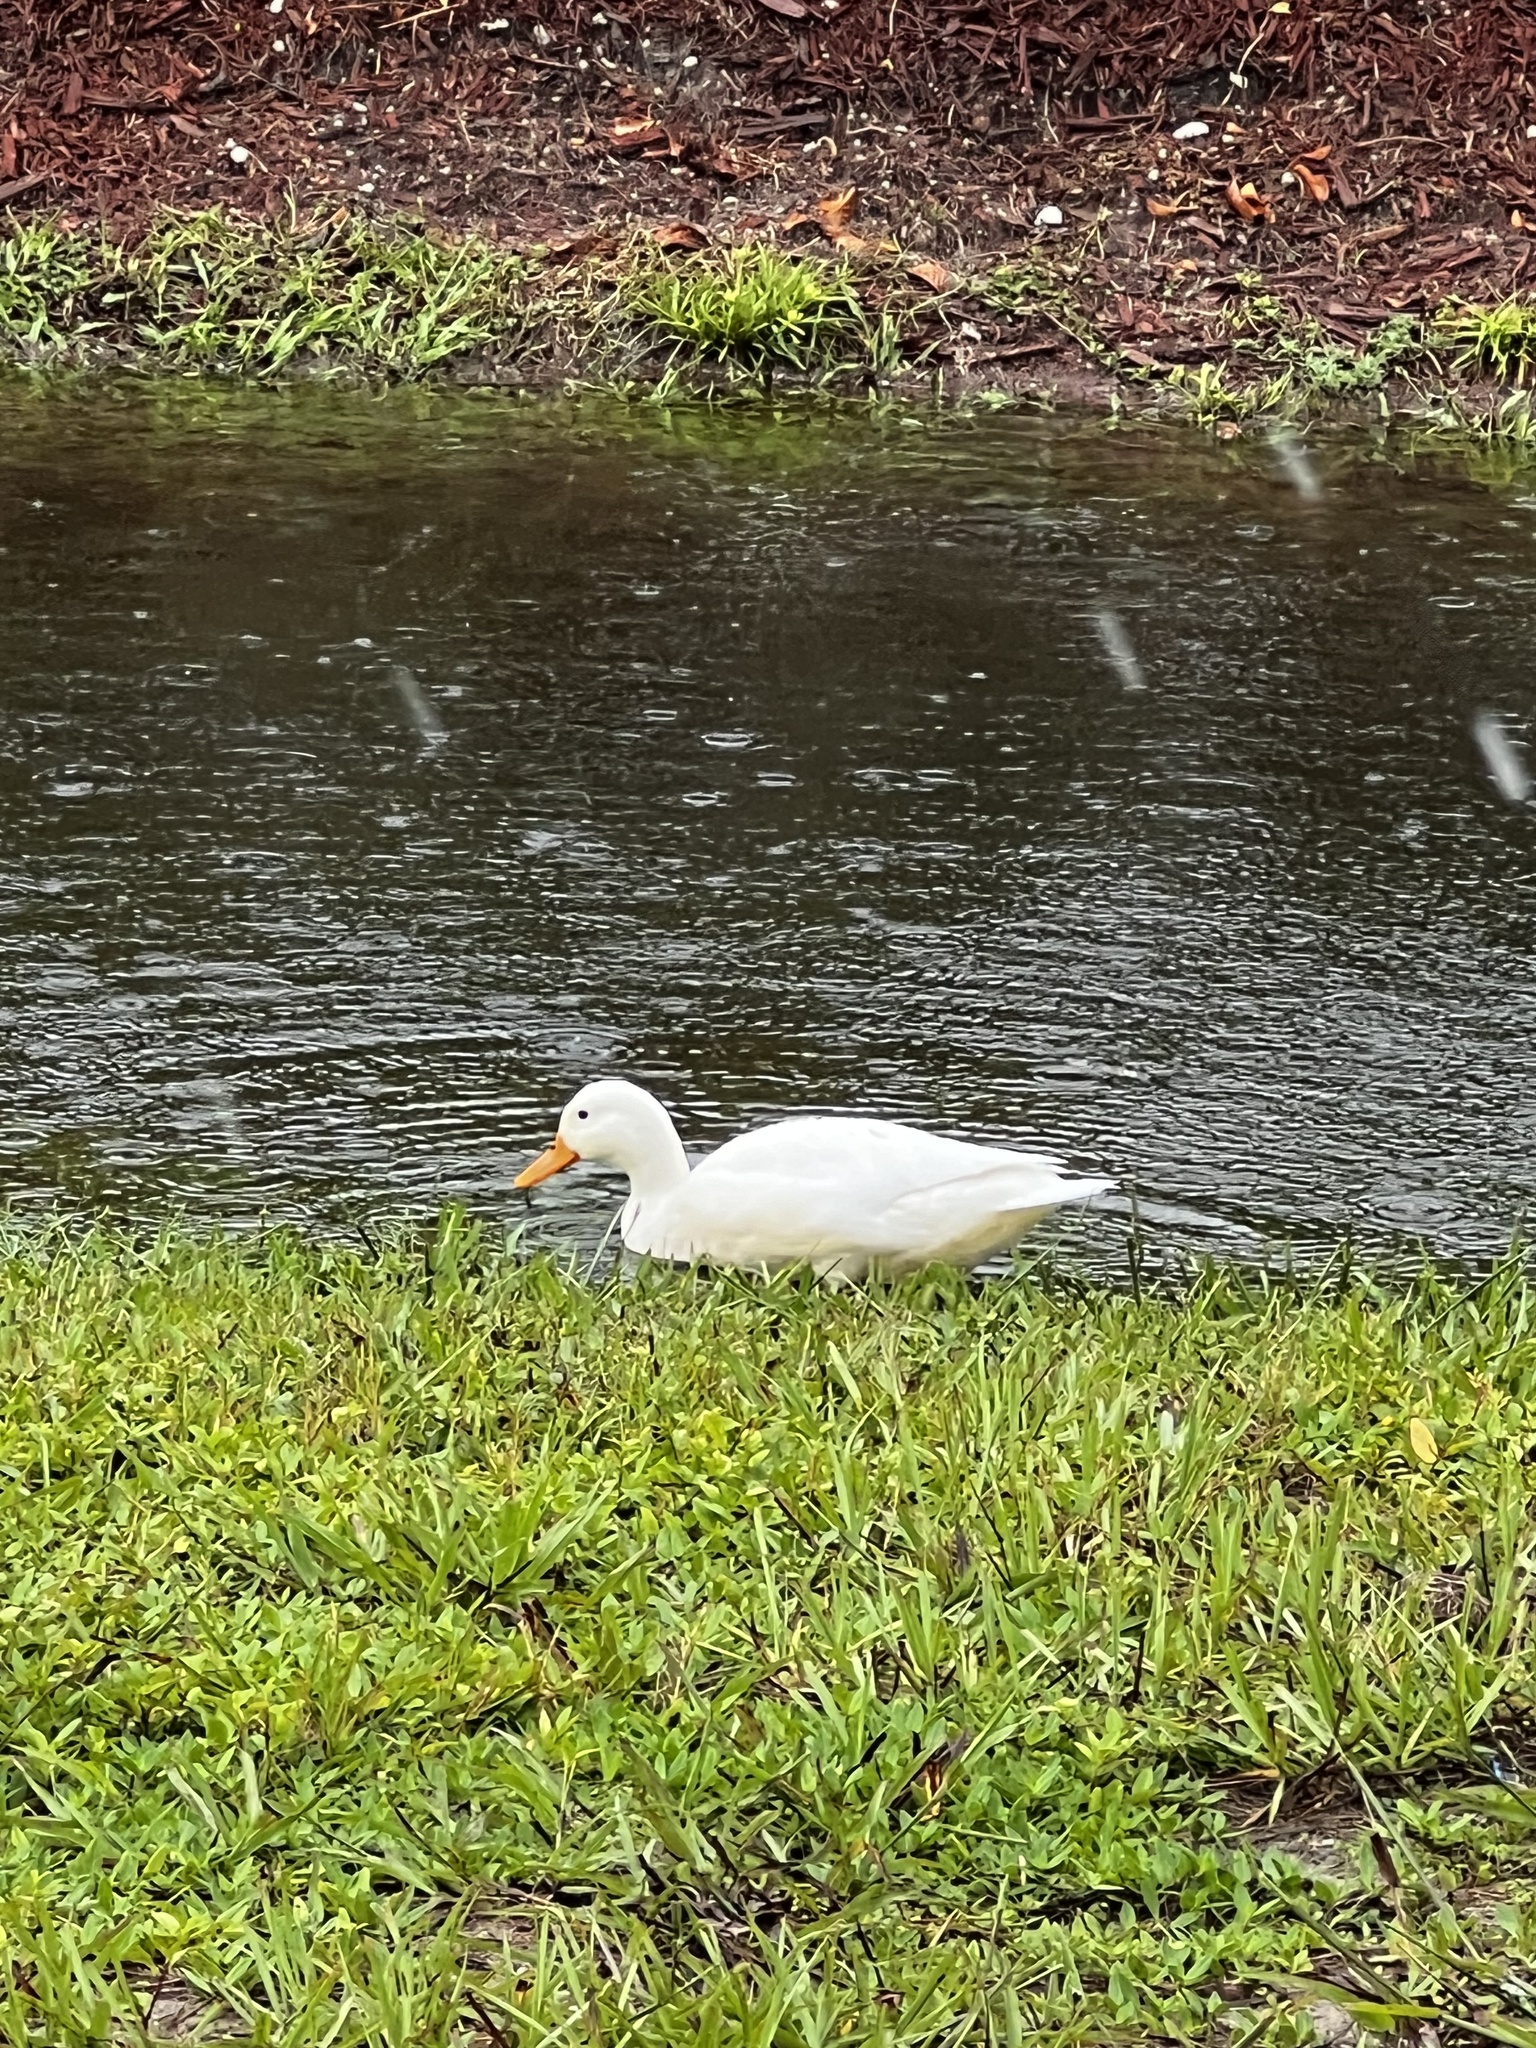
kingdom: Animalia
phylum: Chordata
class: Aves
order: Anseriformes
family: Anatidae
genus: Anas
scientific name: Anas platyrhynchos
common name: Mallard
